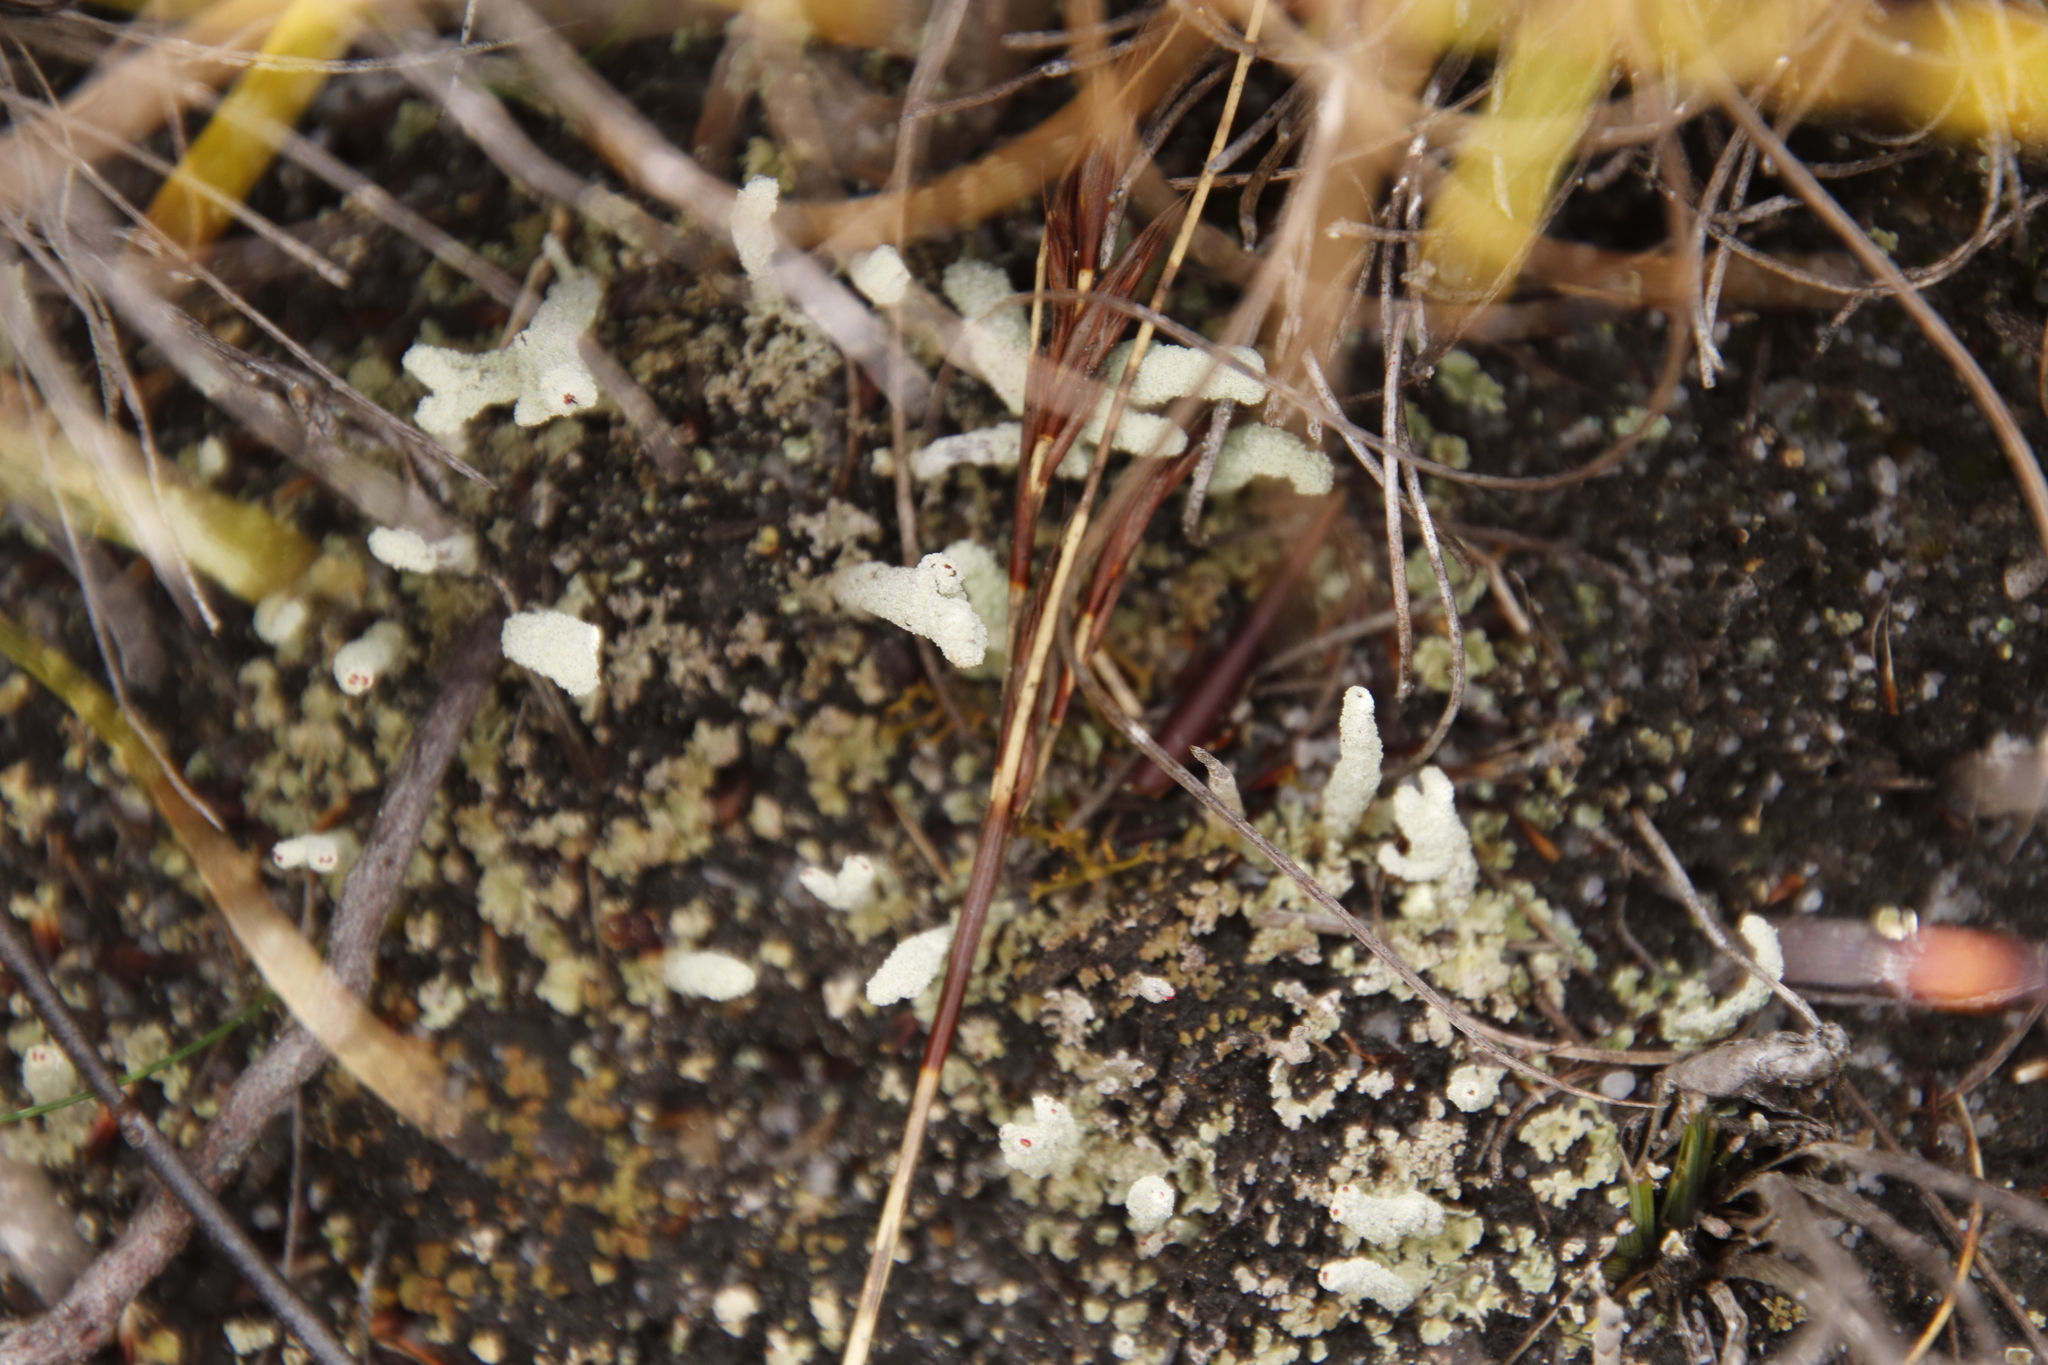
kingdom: Fungi
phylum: Ascomycota
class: Lecanoromycetes
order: Lecanorales
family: Cladoniaceae
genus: Cladonia
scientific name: Cladonia macilenta
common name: Lipstick powderhorn
